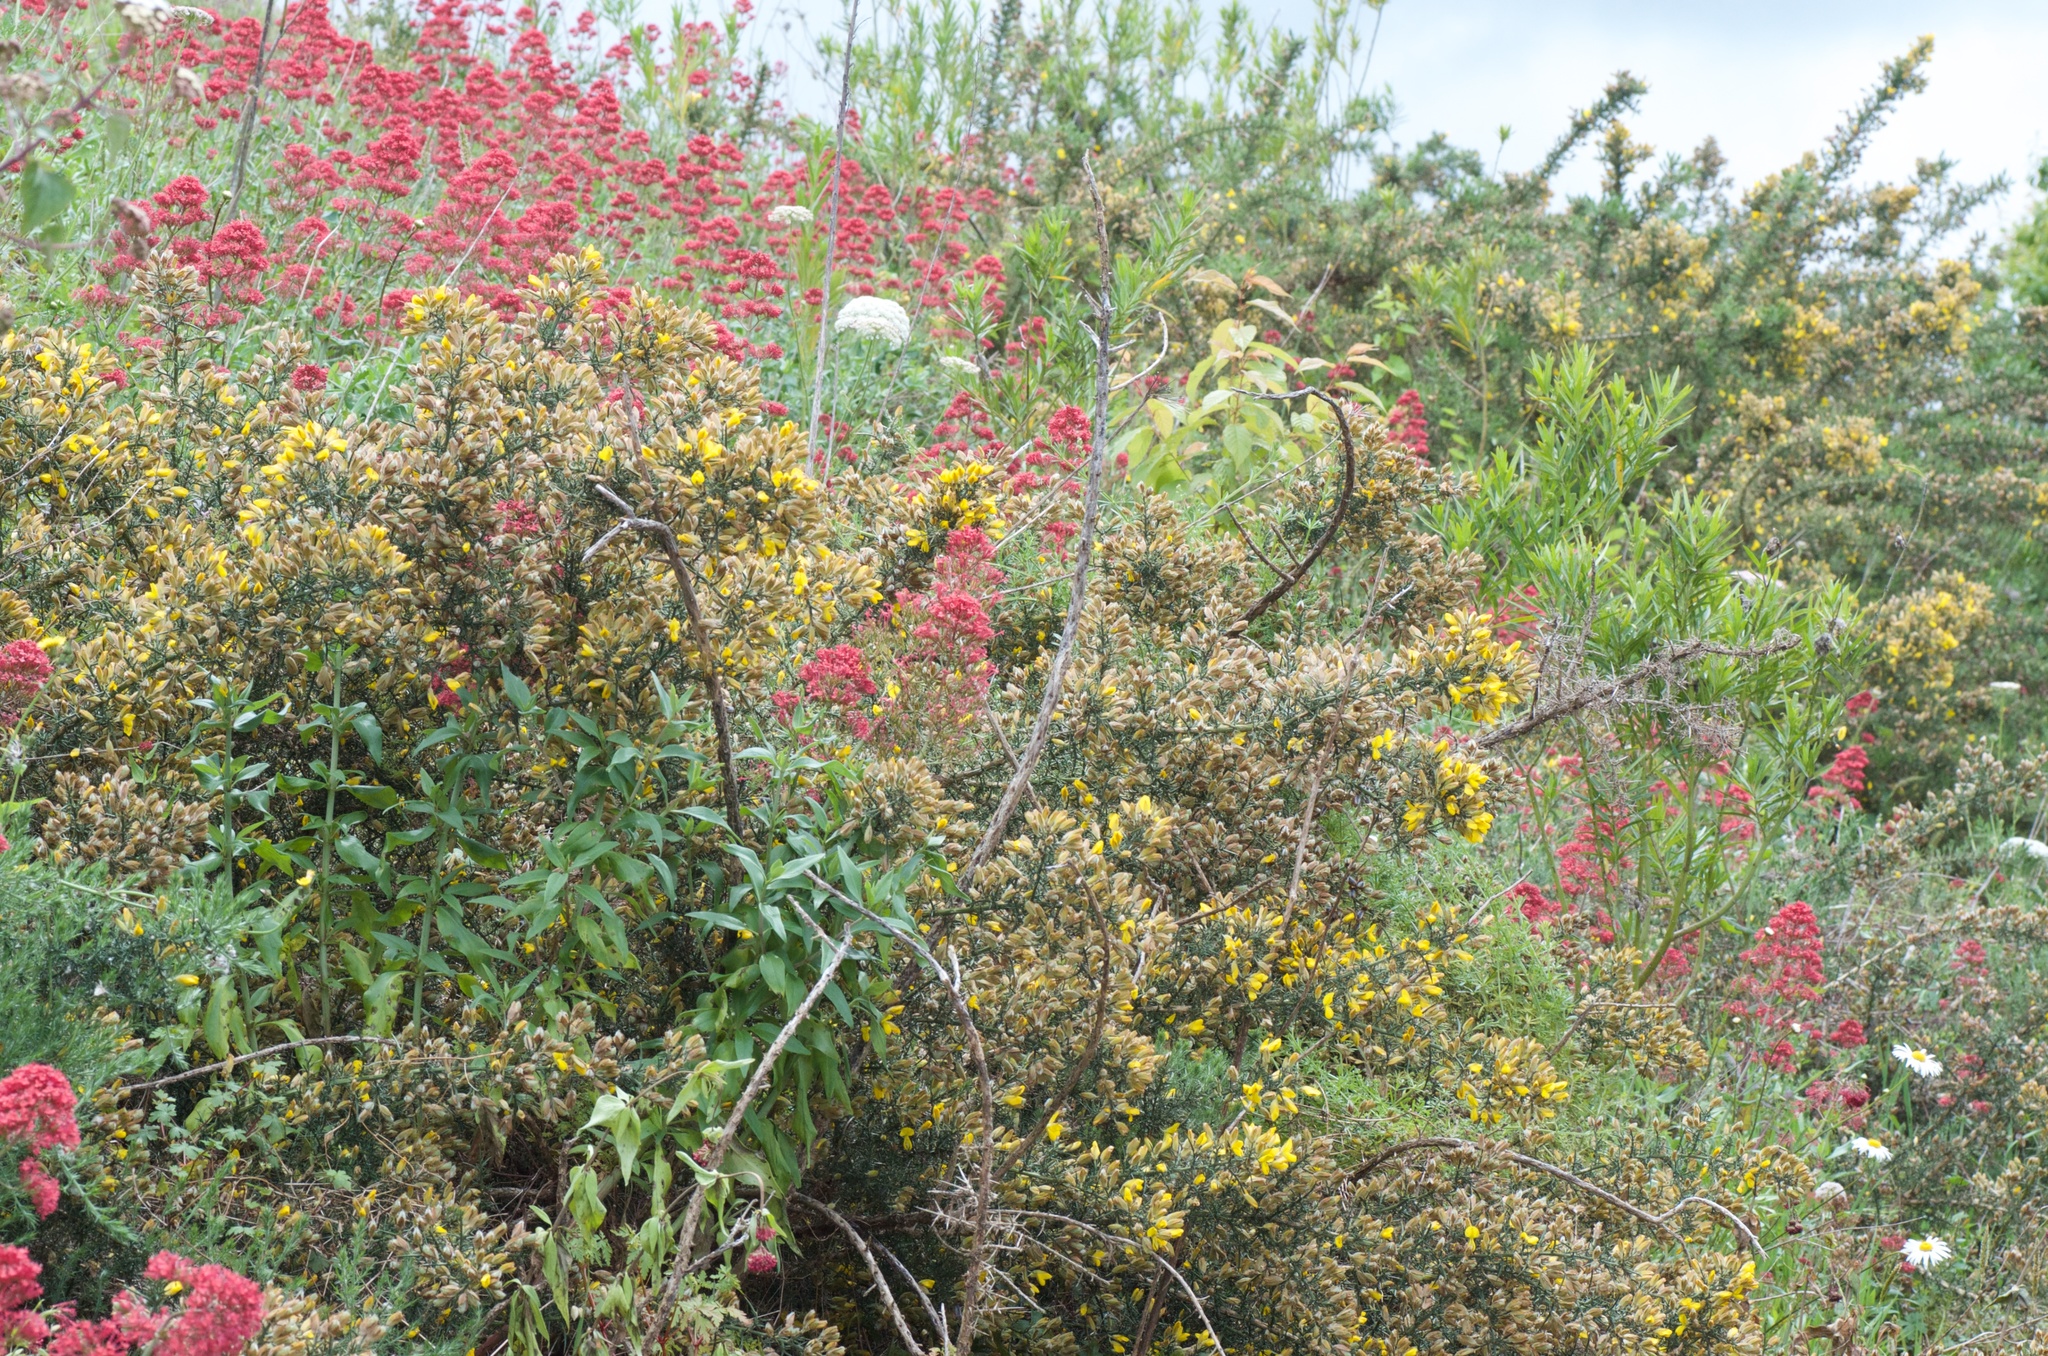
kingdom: Plantae
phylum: Tracheophyta
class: Magnoliopsida
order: Fabales
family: Fabaceae
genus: Ulex
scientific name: Ulex europaeus
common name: Common gorse
